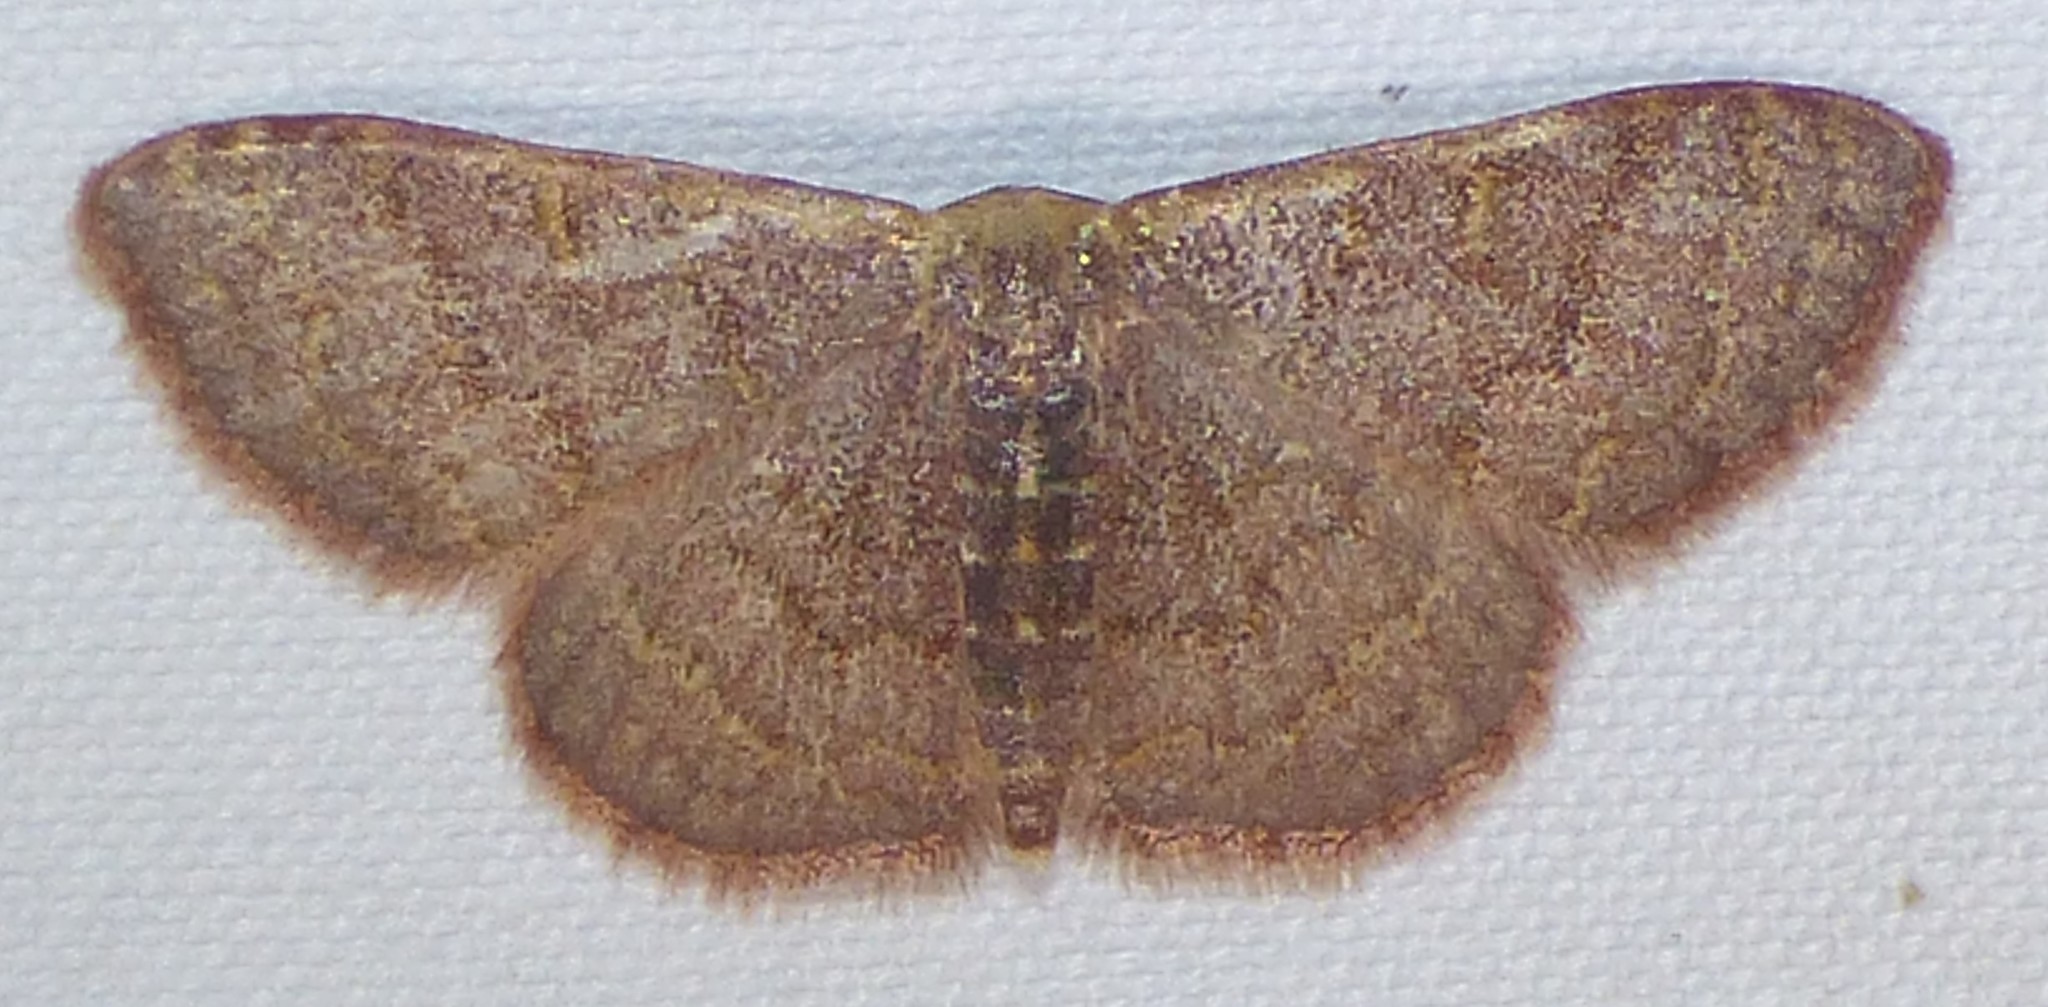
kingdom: Animalia
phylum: Arthropoda
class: Insecta
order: Lepidoptera
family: Geometridae
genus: Leptostales
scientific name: Leptostales pannaria
